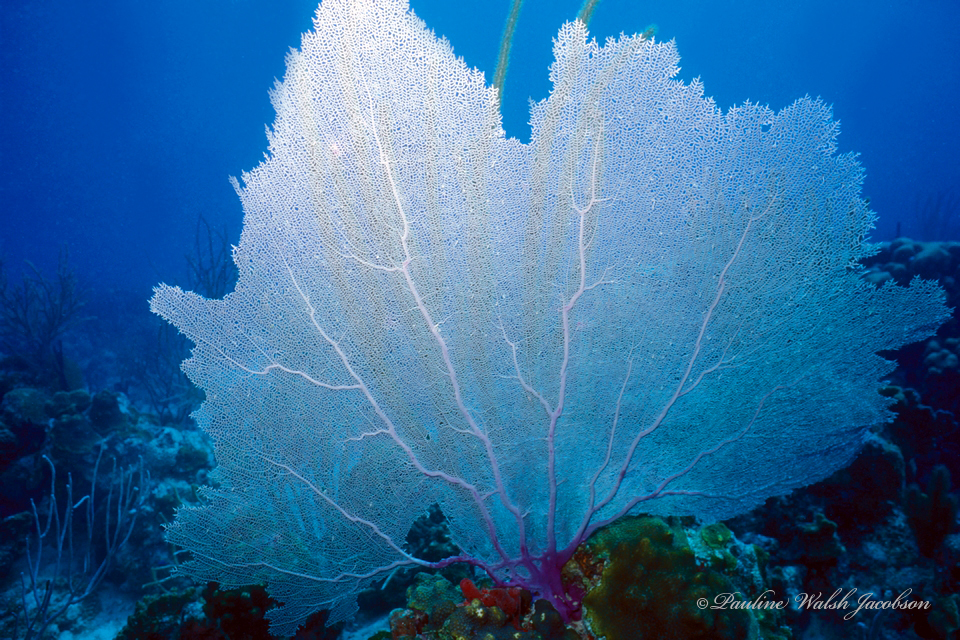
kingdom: Animalia
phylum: Cnidaria
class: Anthozoa
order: Malacalcyonacea
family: Gorgoniidae
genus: Gorgonia
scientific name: Gorgonia ventalina
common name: Common sea fan
